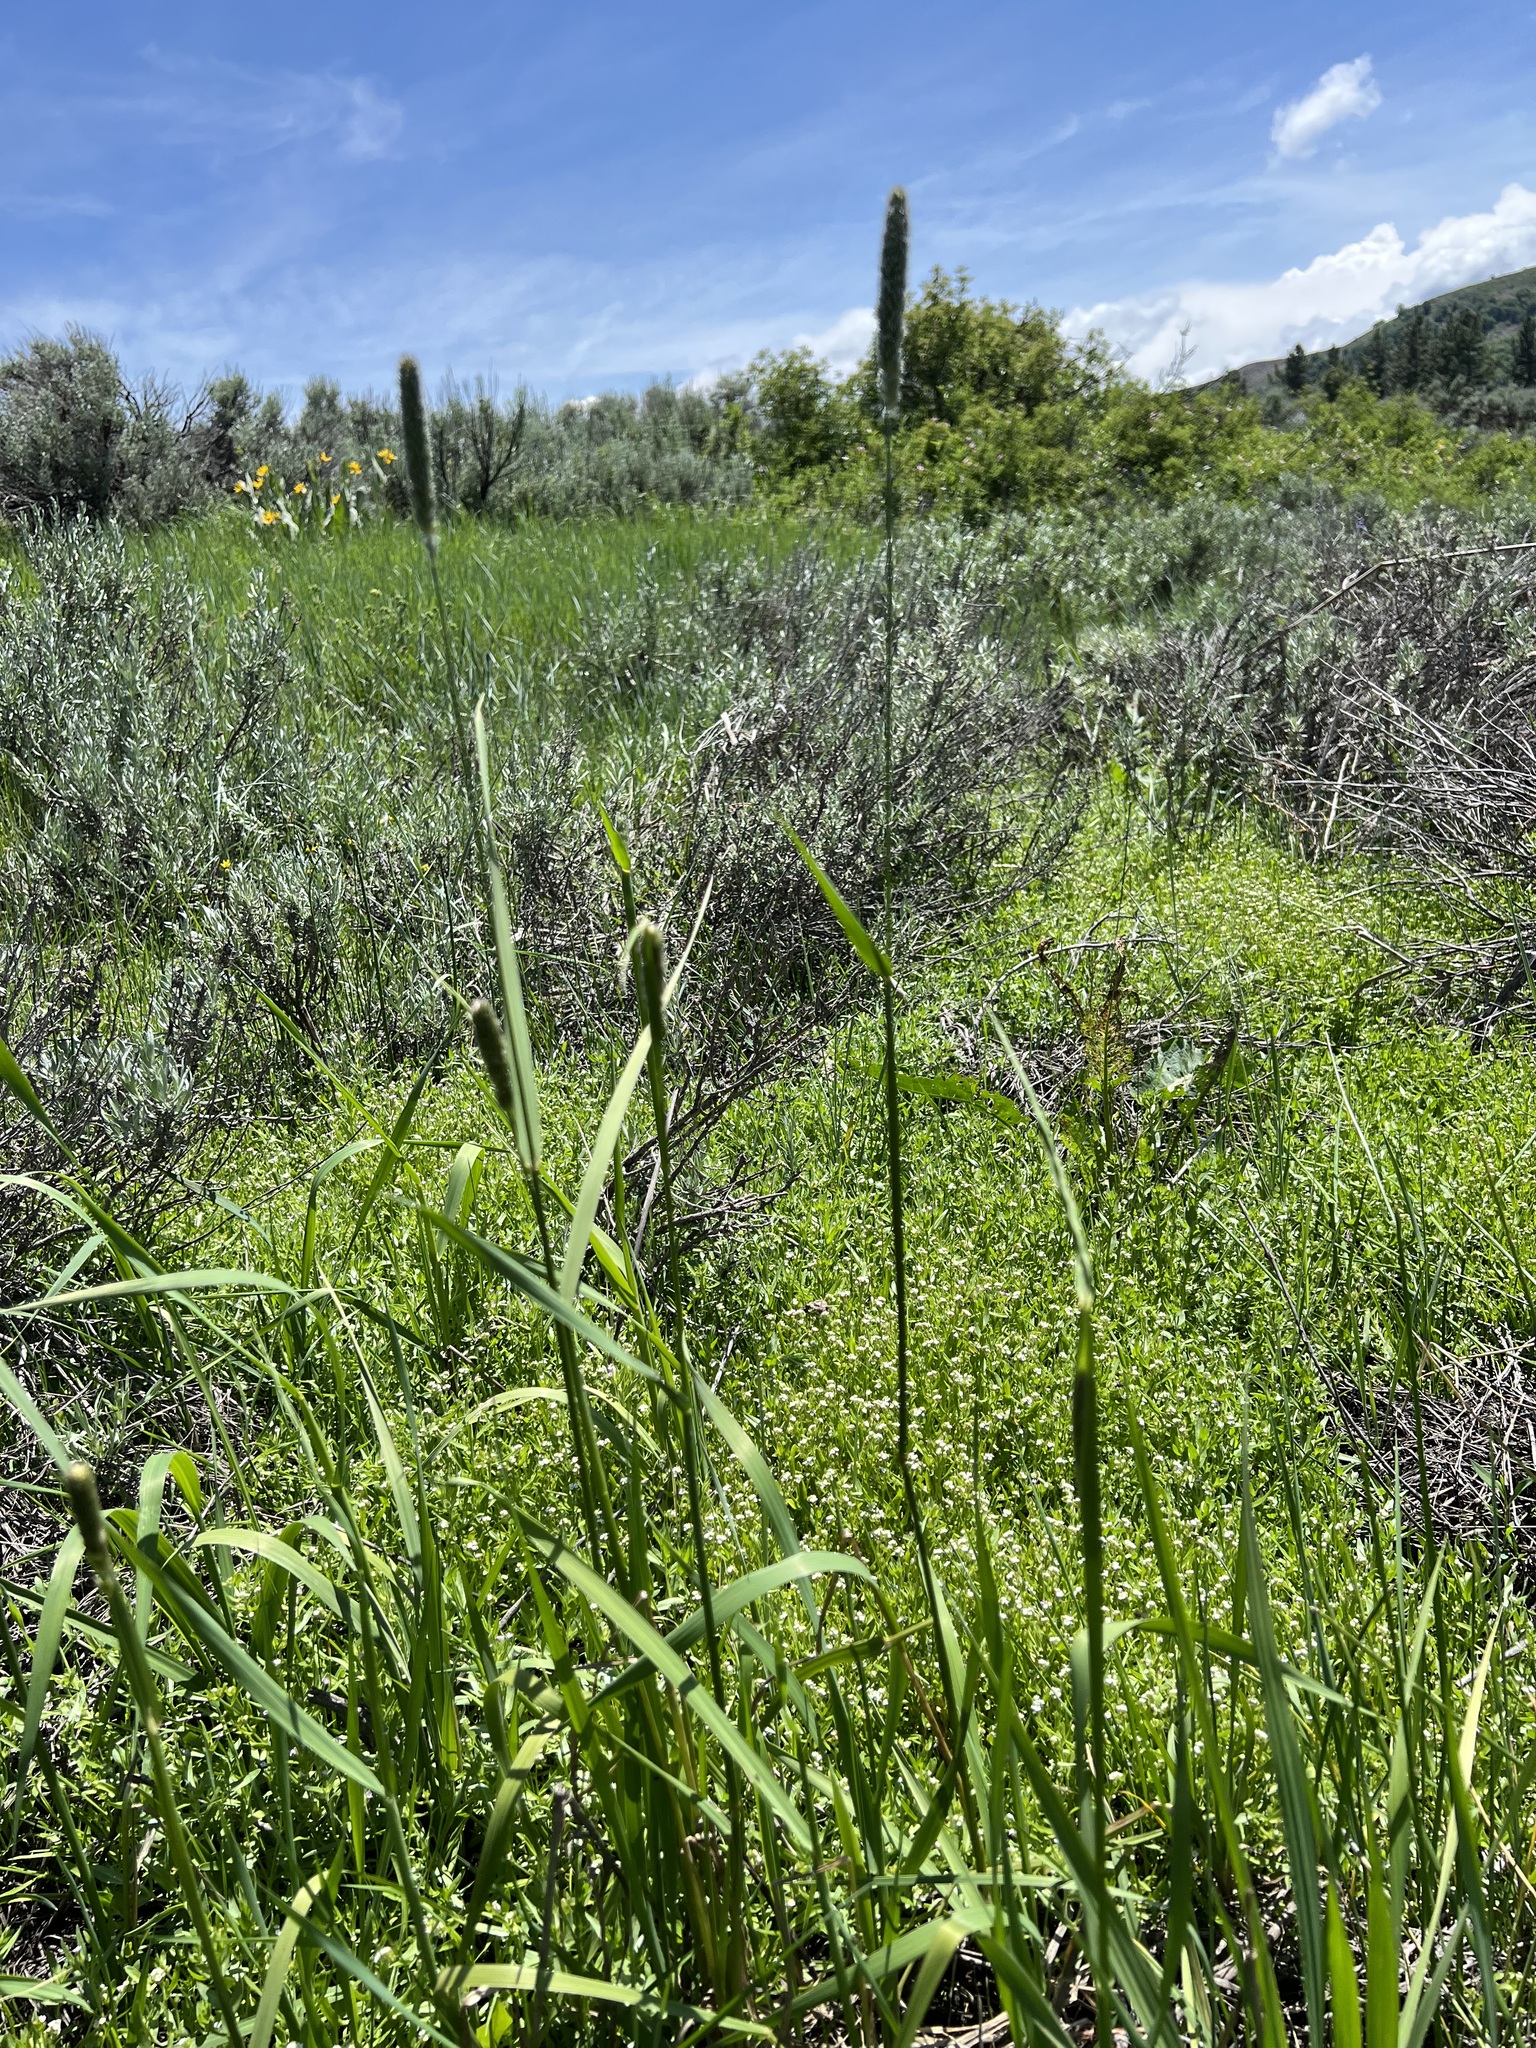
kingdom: Plantae
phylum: Tracheophyta
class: Liliopsida
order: Poales
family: Poaceae
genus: Phleum
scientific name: Phleum pratense
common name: Timothy grass
